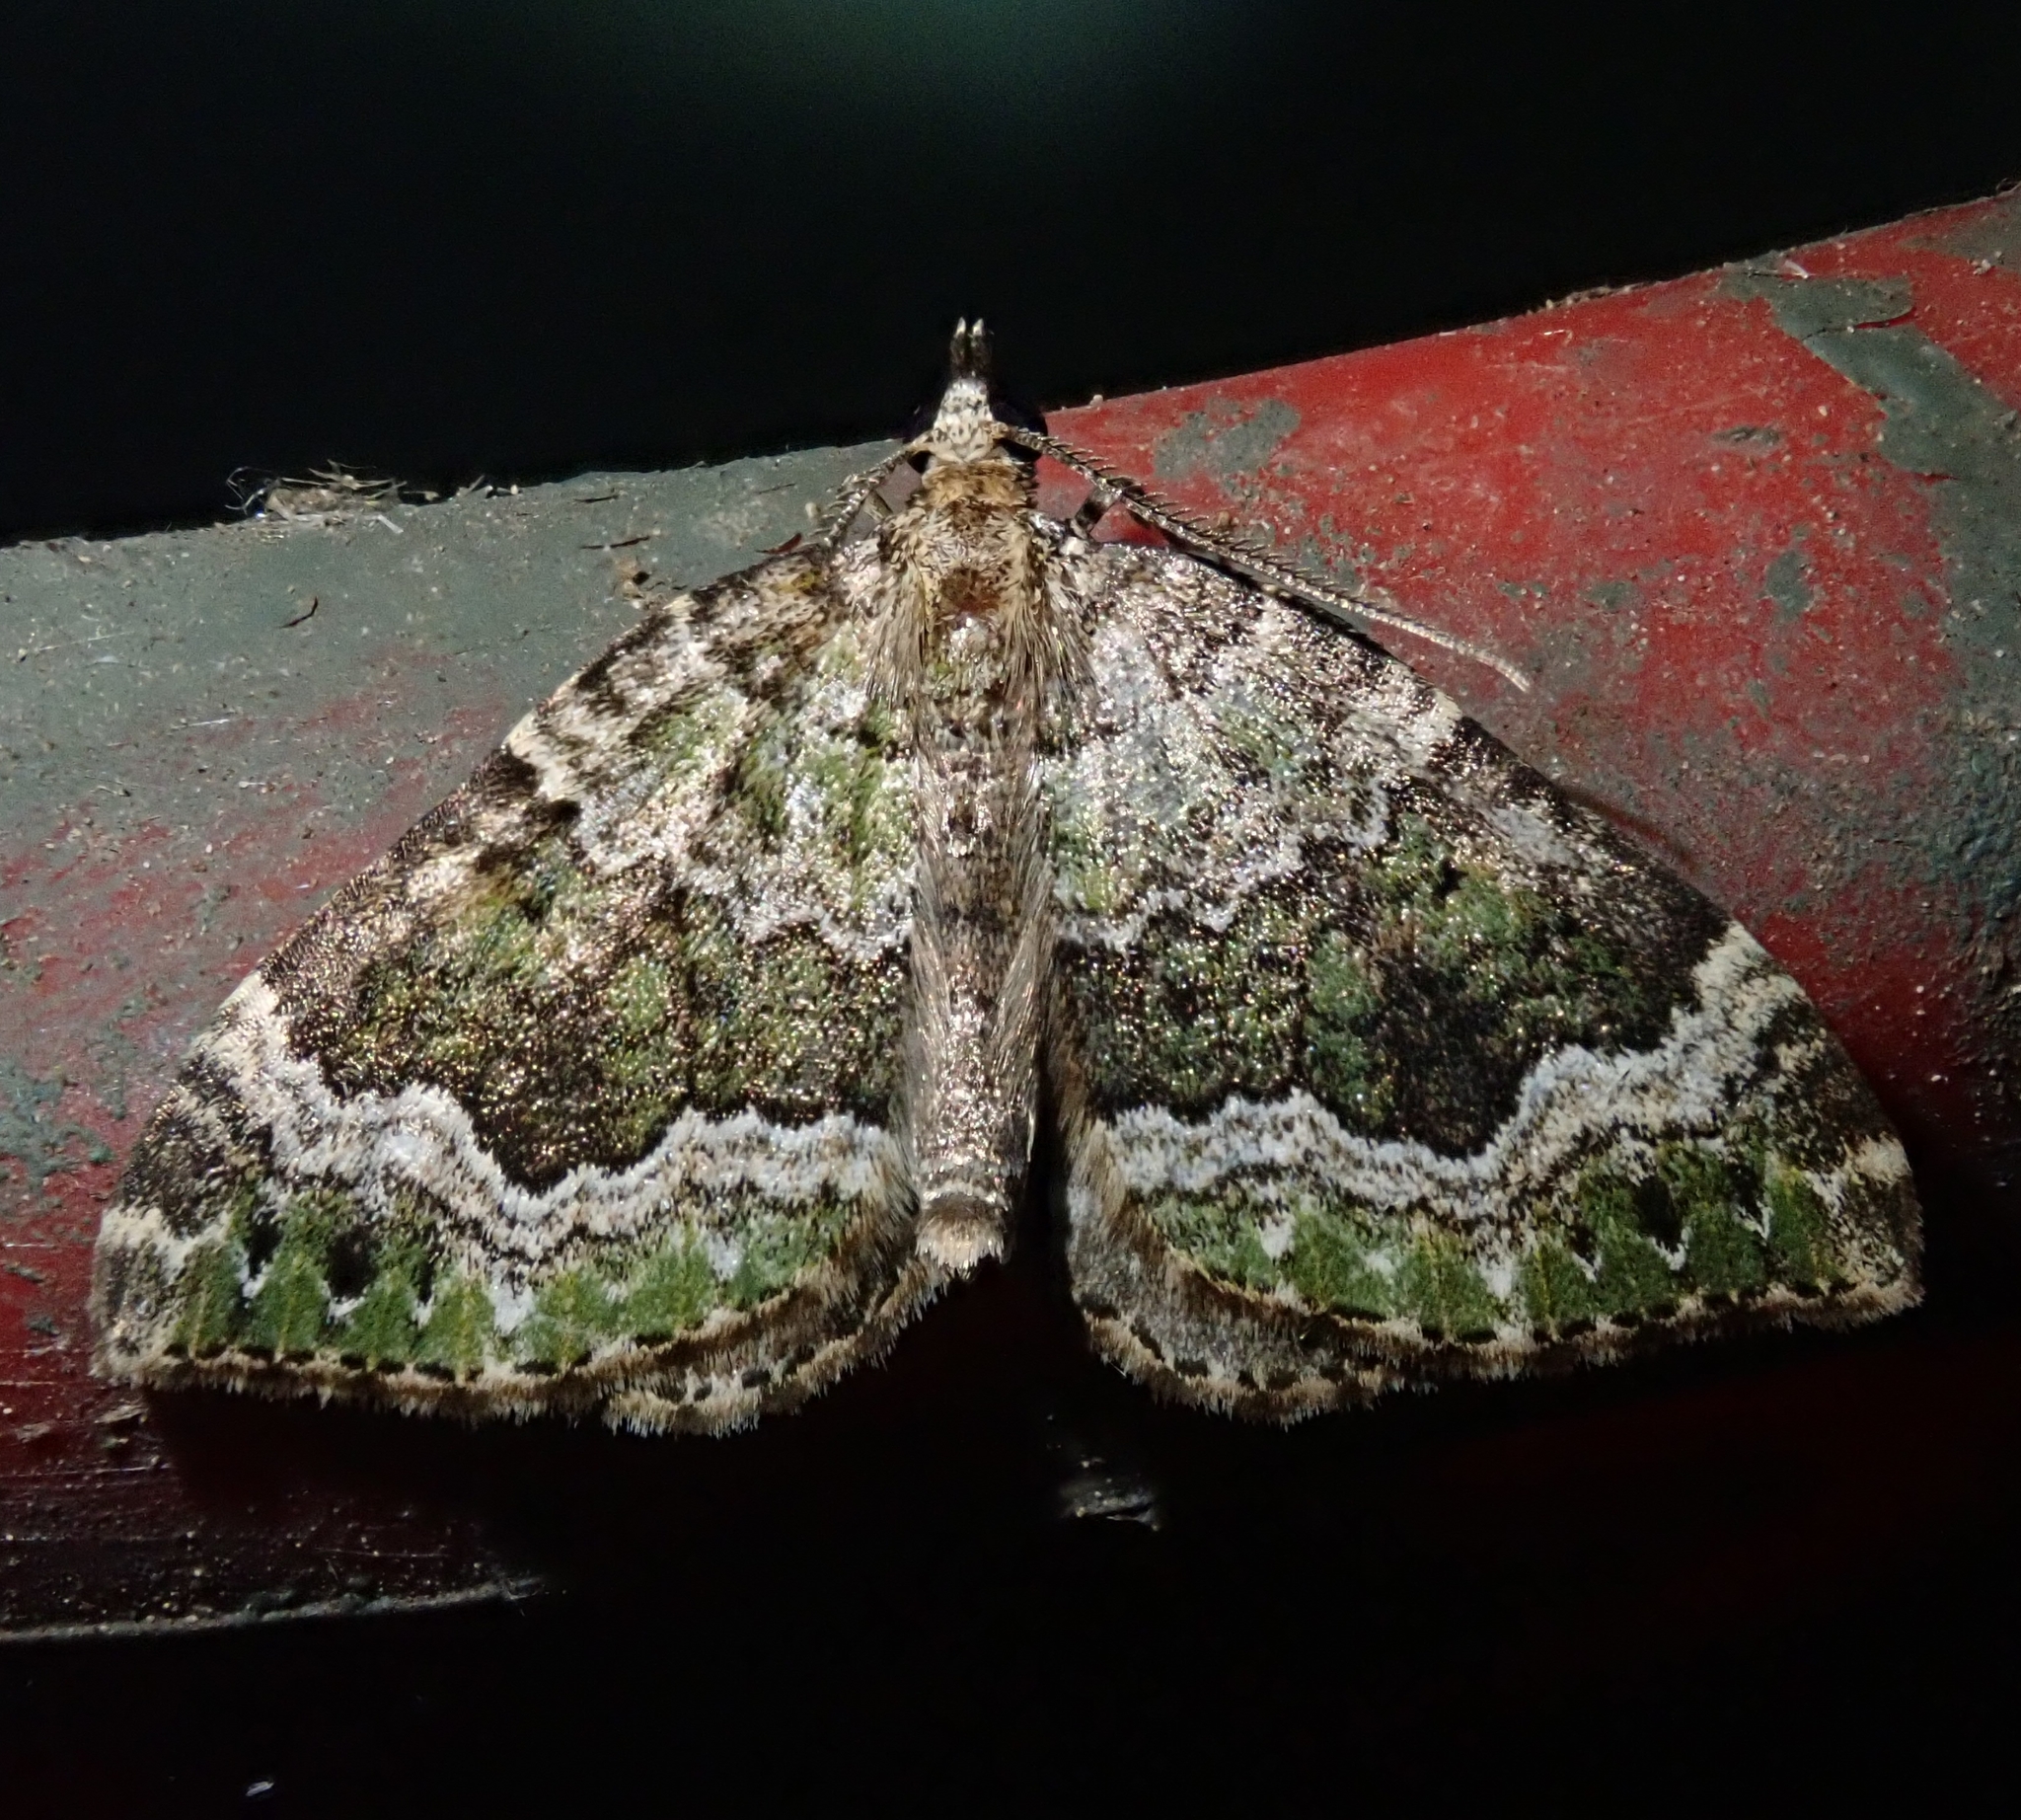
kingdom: Animalia
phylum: Arthropoda
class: Insecta
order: Lepidoptera
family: Geometridae
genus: Colostygia
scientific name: Colostygia olivata
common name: Beech-green carpet
